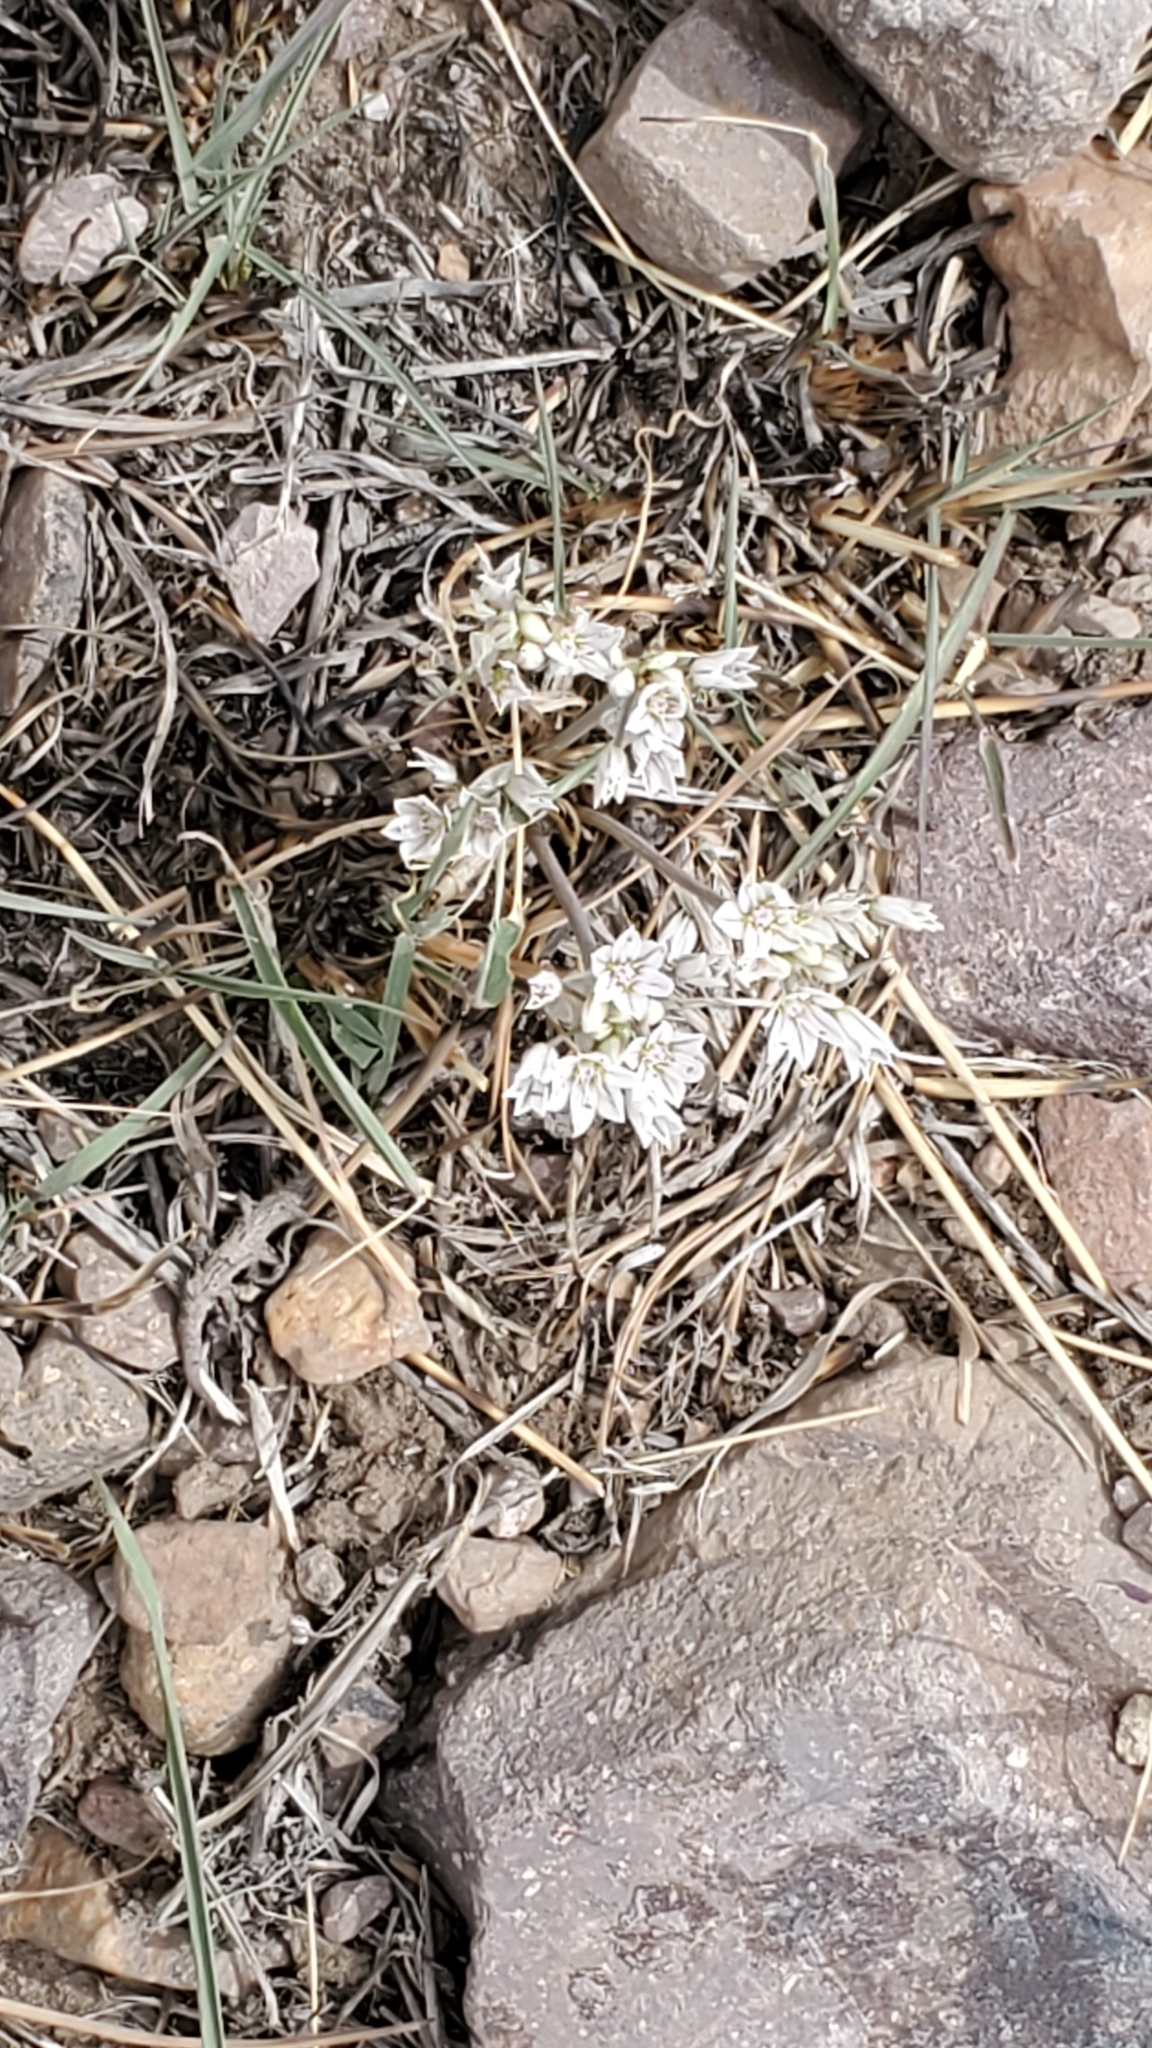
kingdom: Plantae
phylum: Tracheophyta
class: Liliopsida
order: Asparagales
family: Amaryllidaceae
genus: Allium
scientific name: Allium macropetalum
